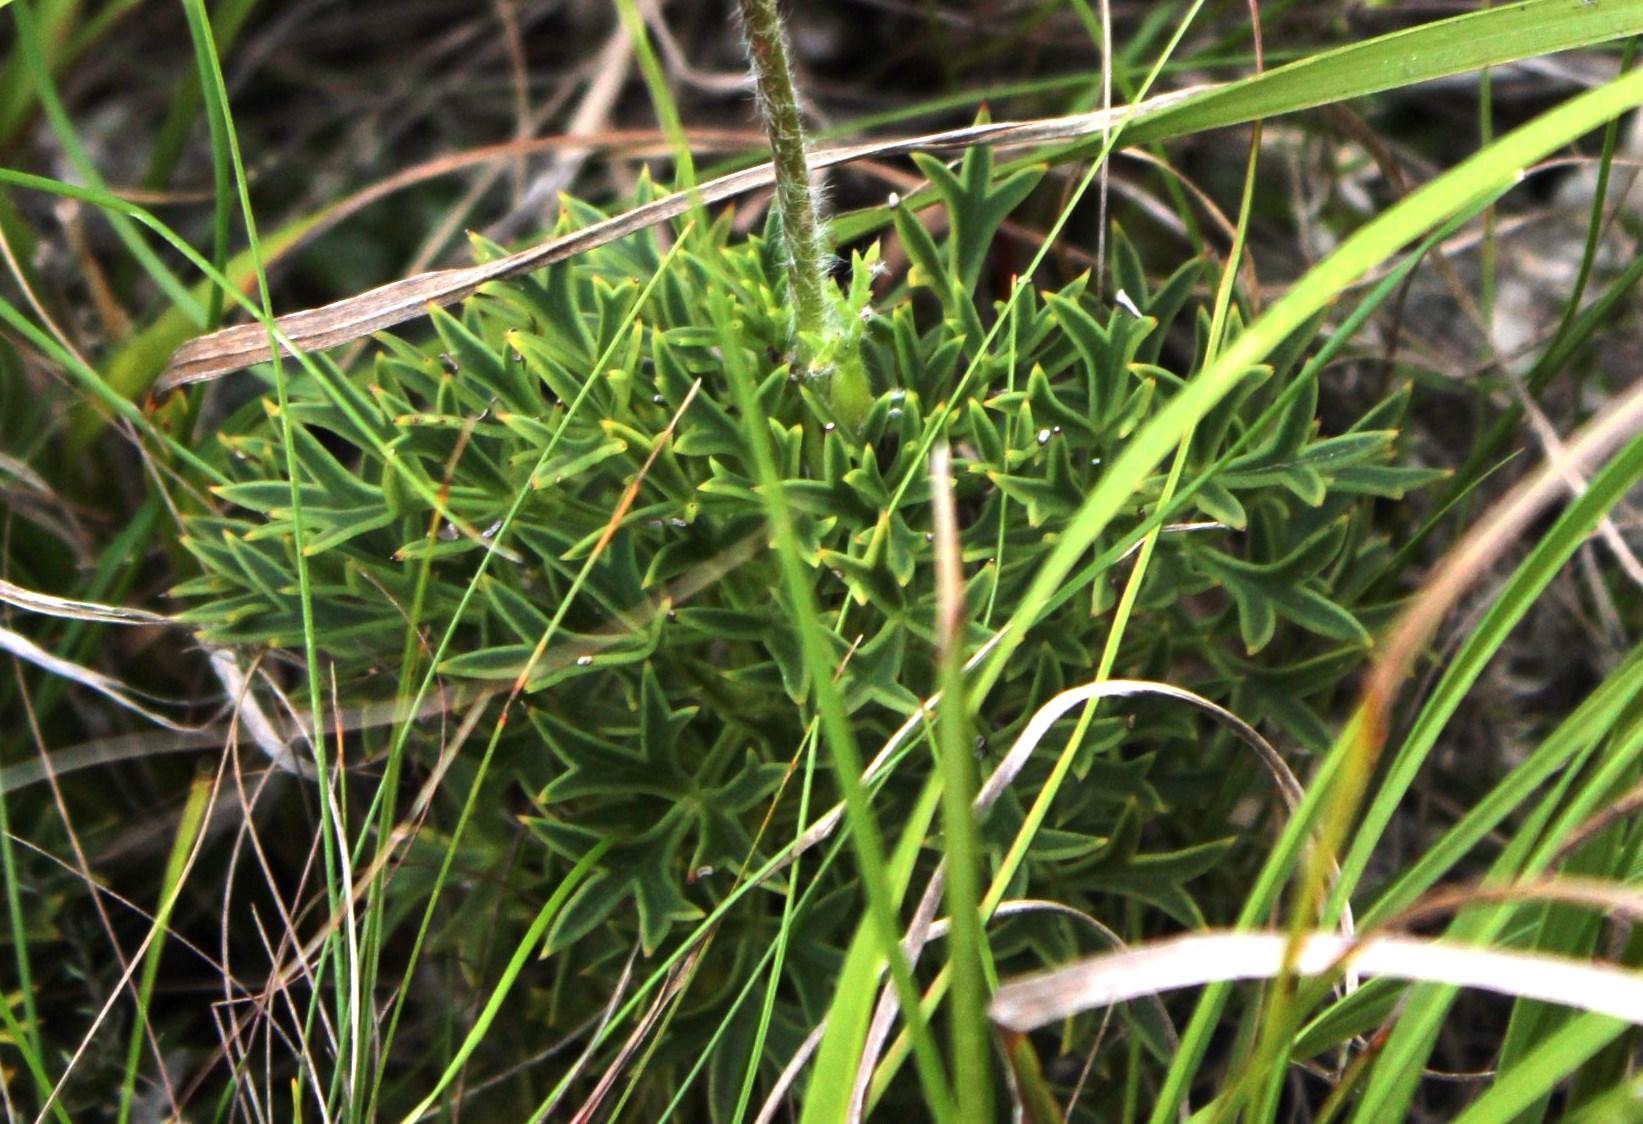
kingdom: Plantae
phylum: Tracheophyta
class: Magnoliopsida
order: Ranunculales
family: Ranunculaceae
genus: Knowltonia
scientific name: Knowltonia tenuifolia
